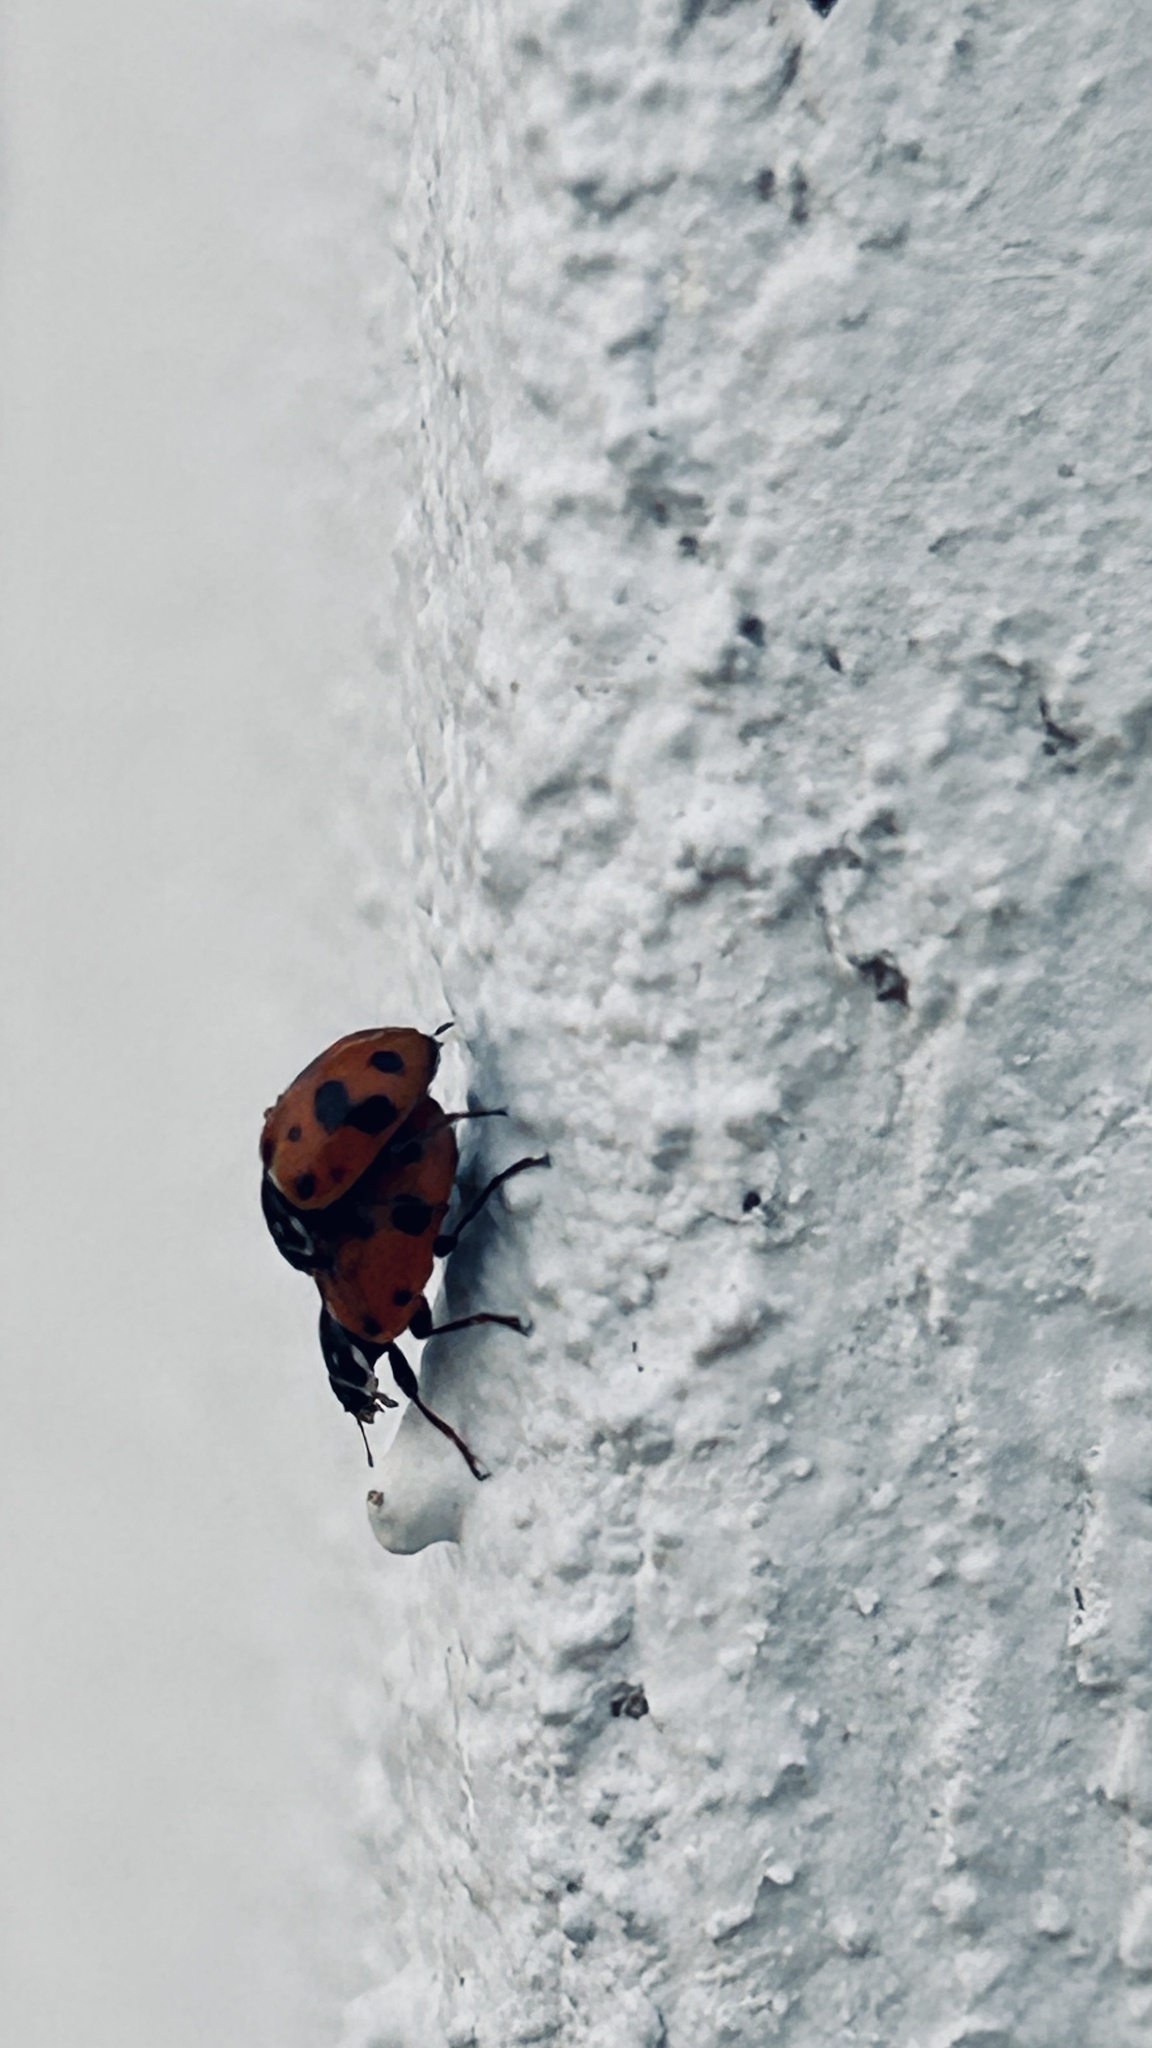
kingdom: Animalia
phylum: Arthropoda
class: Insecta
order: Coleoptera
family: Coccinellidae
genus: Hippodamia
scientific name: Hippodamia variegata
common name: Ladybird beetle
